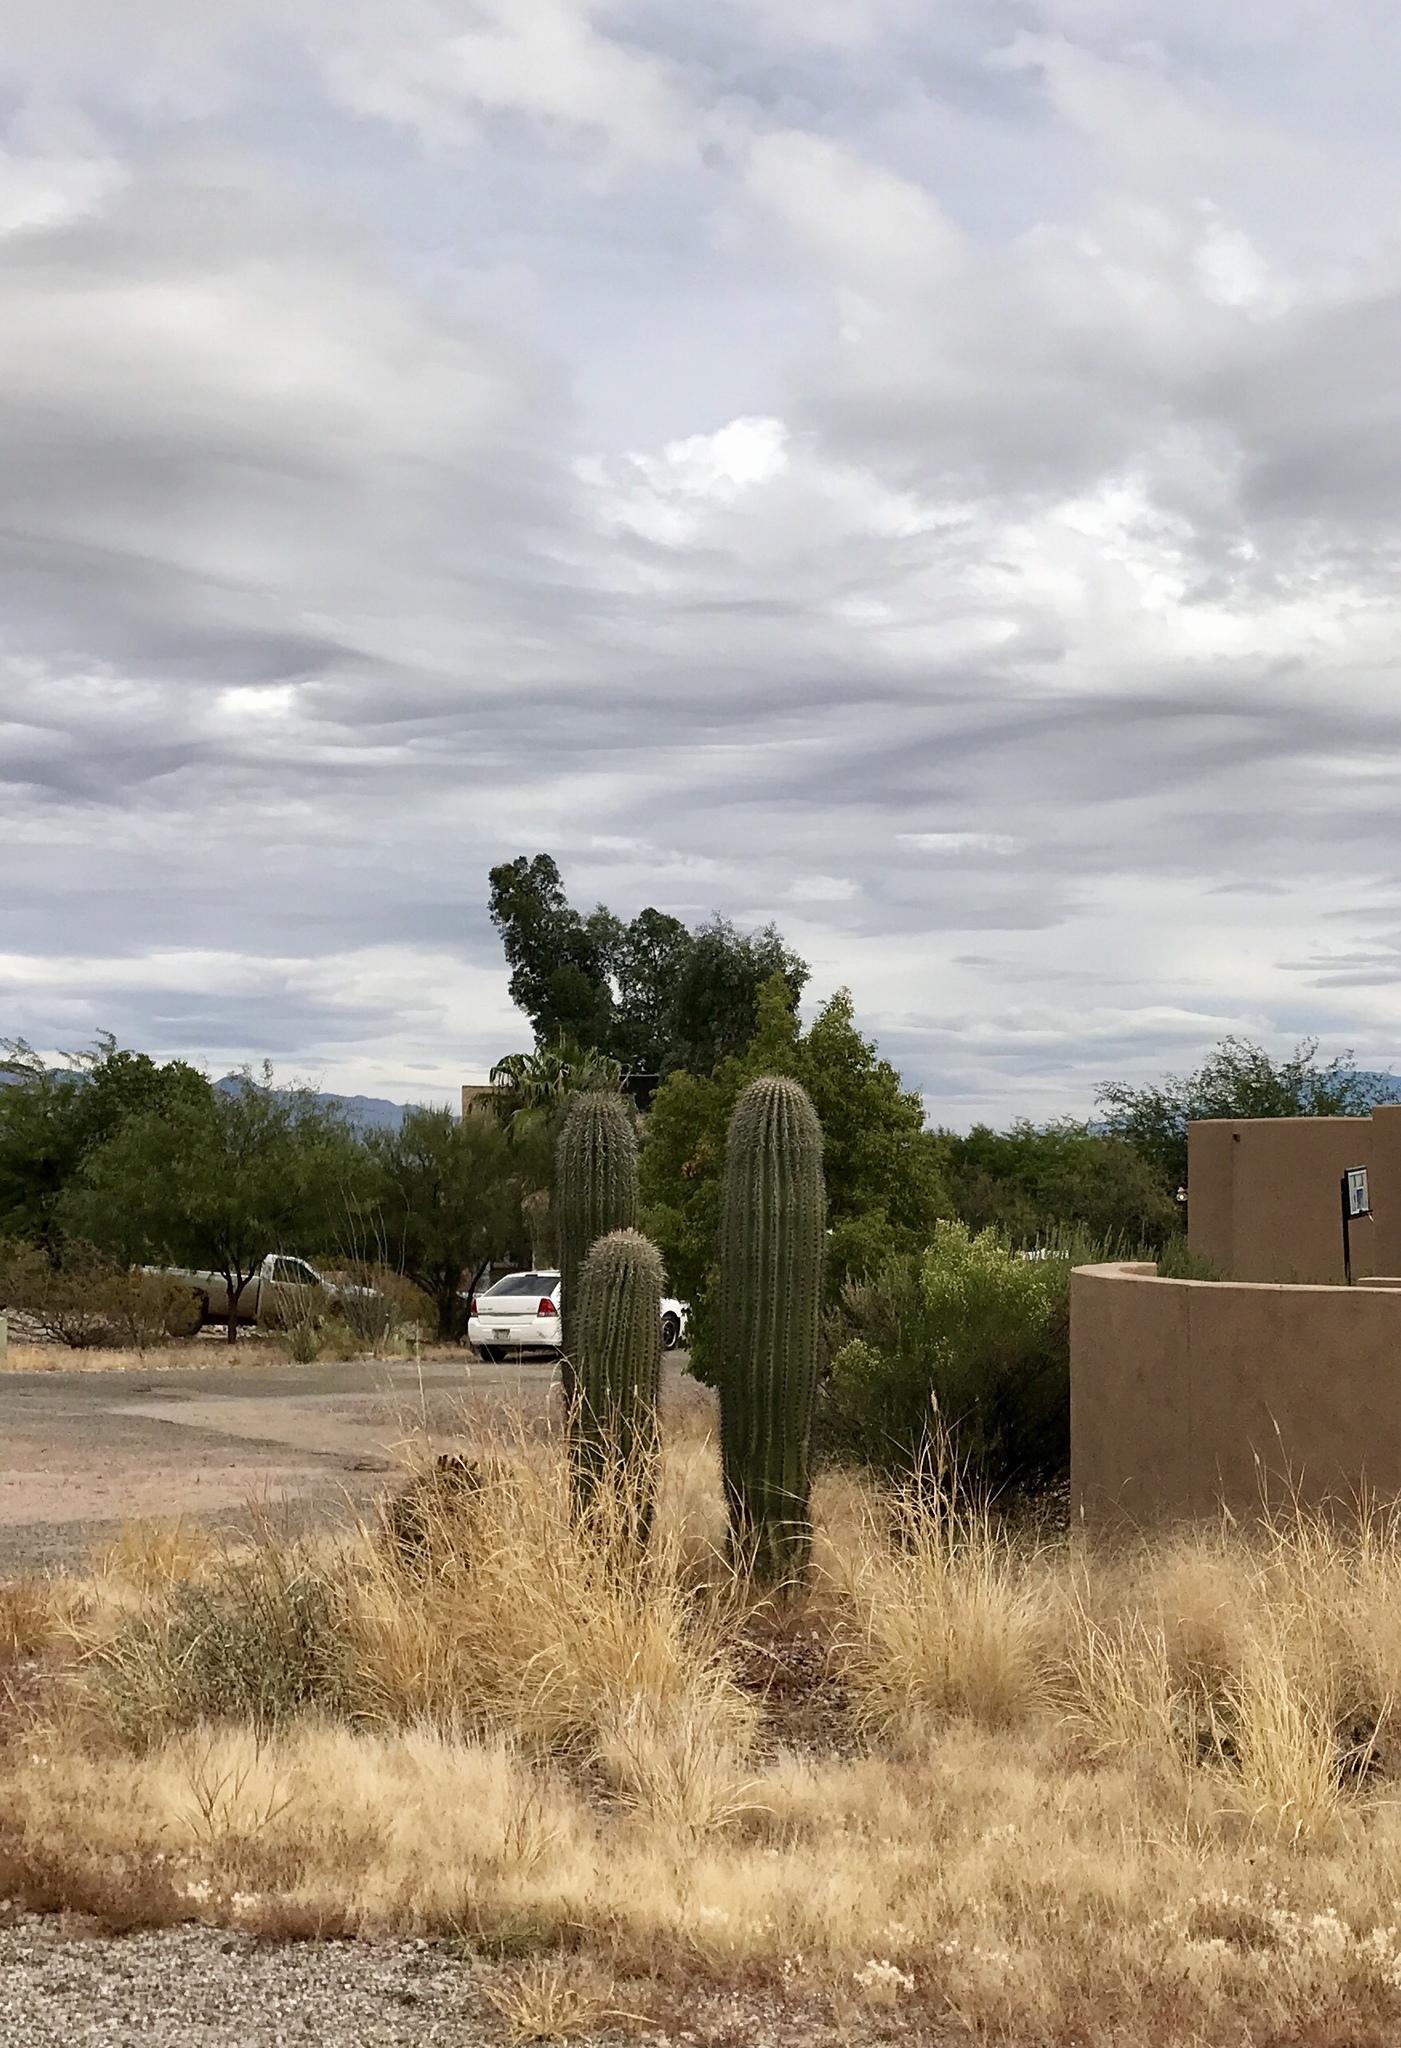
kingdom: Plantae
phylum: Tracheophyta
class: Magnoliopsida
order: Caryophyllales
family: Cactaceae
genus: Carnegiea
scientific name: Carnegiea gigantea
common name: Saguaro
